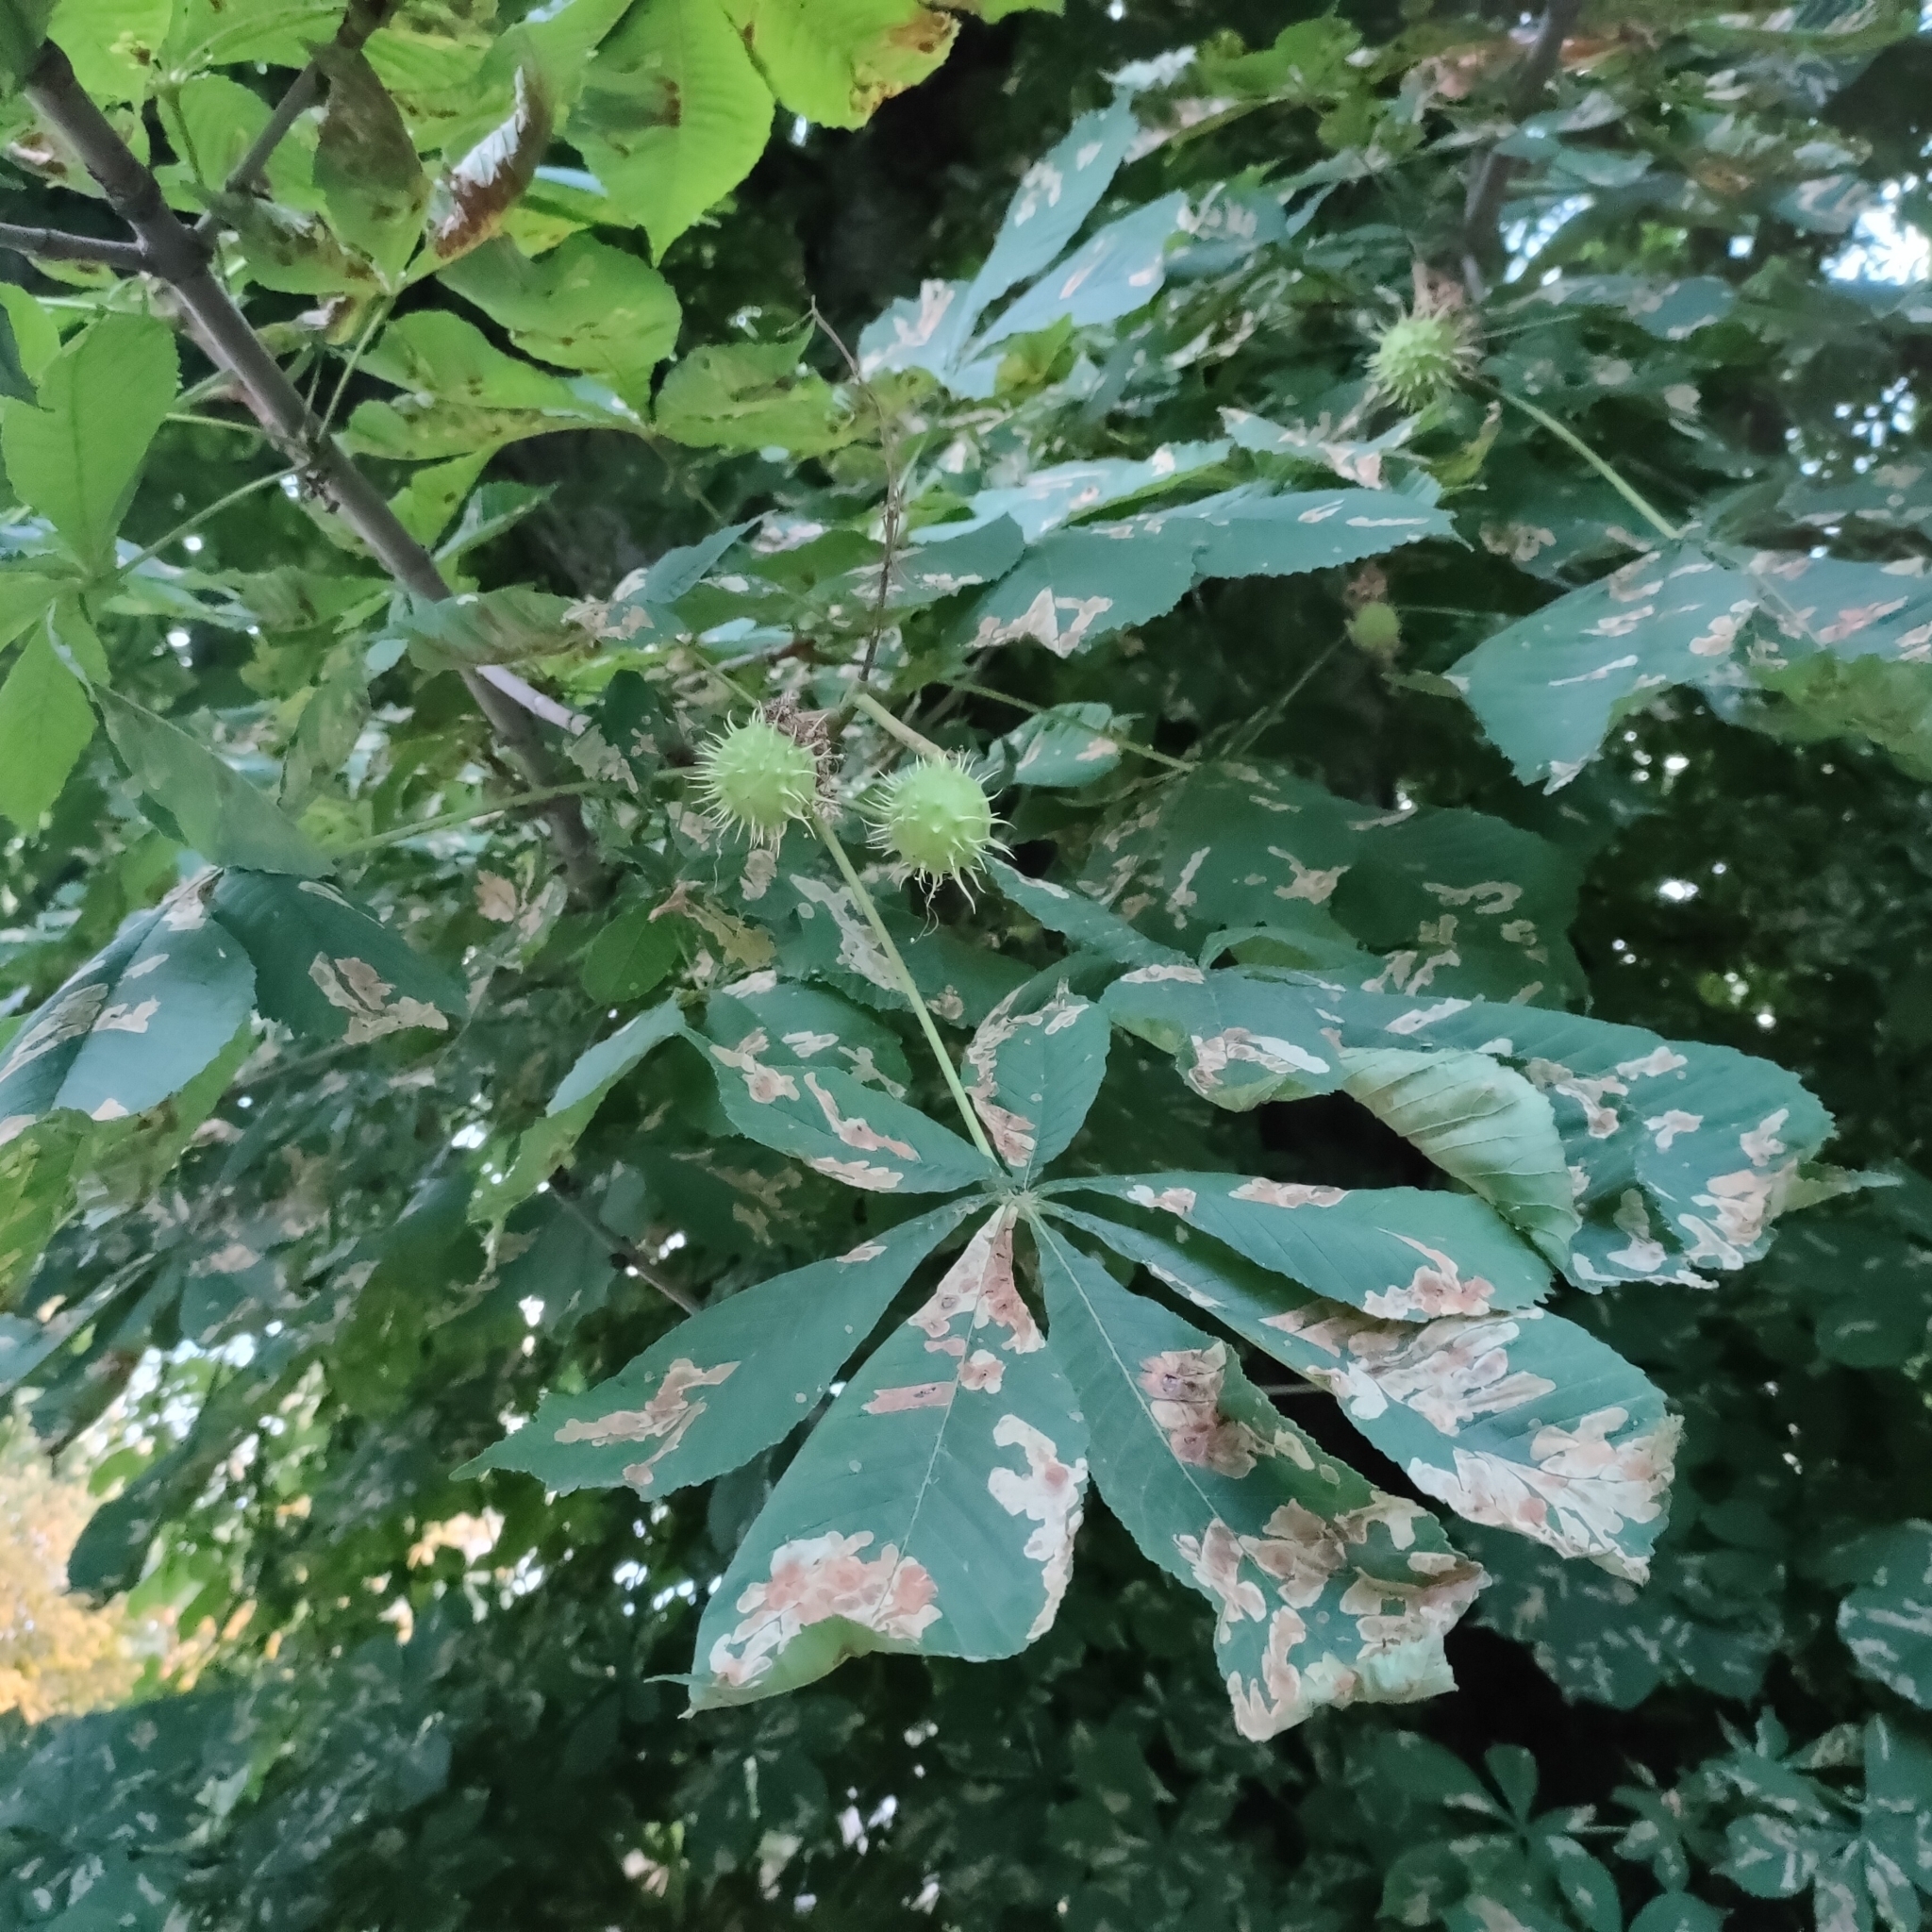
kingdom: Animalia
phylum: Arthropoda
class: Insecta
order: Lepidoptera
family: Gracillariidae
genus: Cameraria
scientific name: Cameraria ohridella
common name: Horse-chestnut leaf-miner
